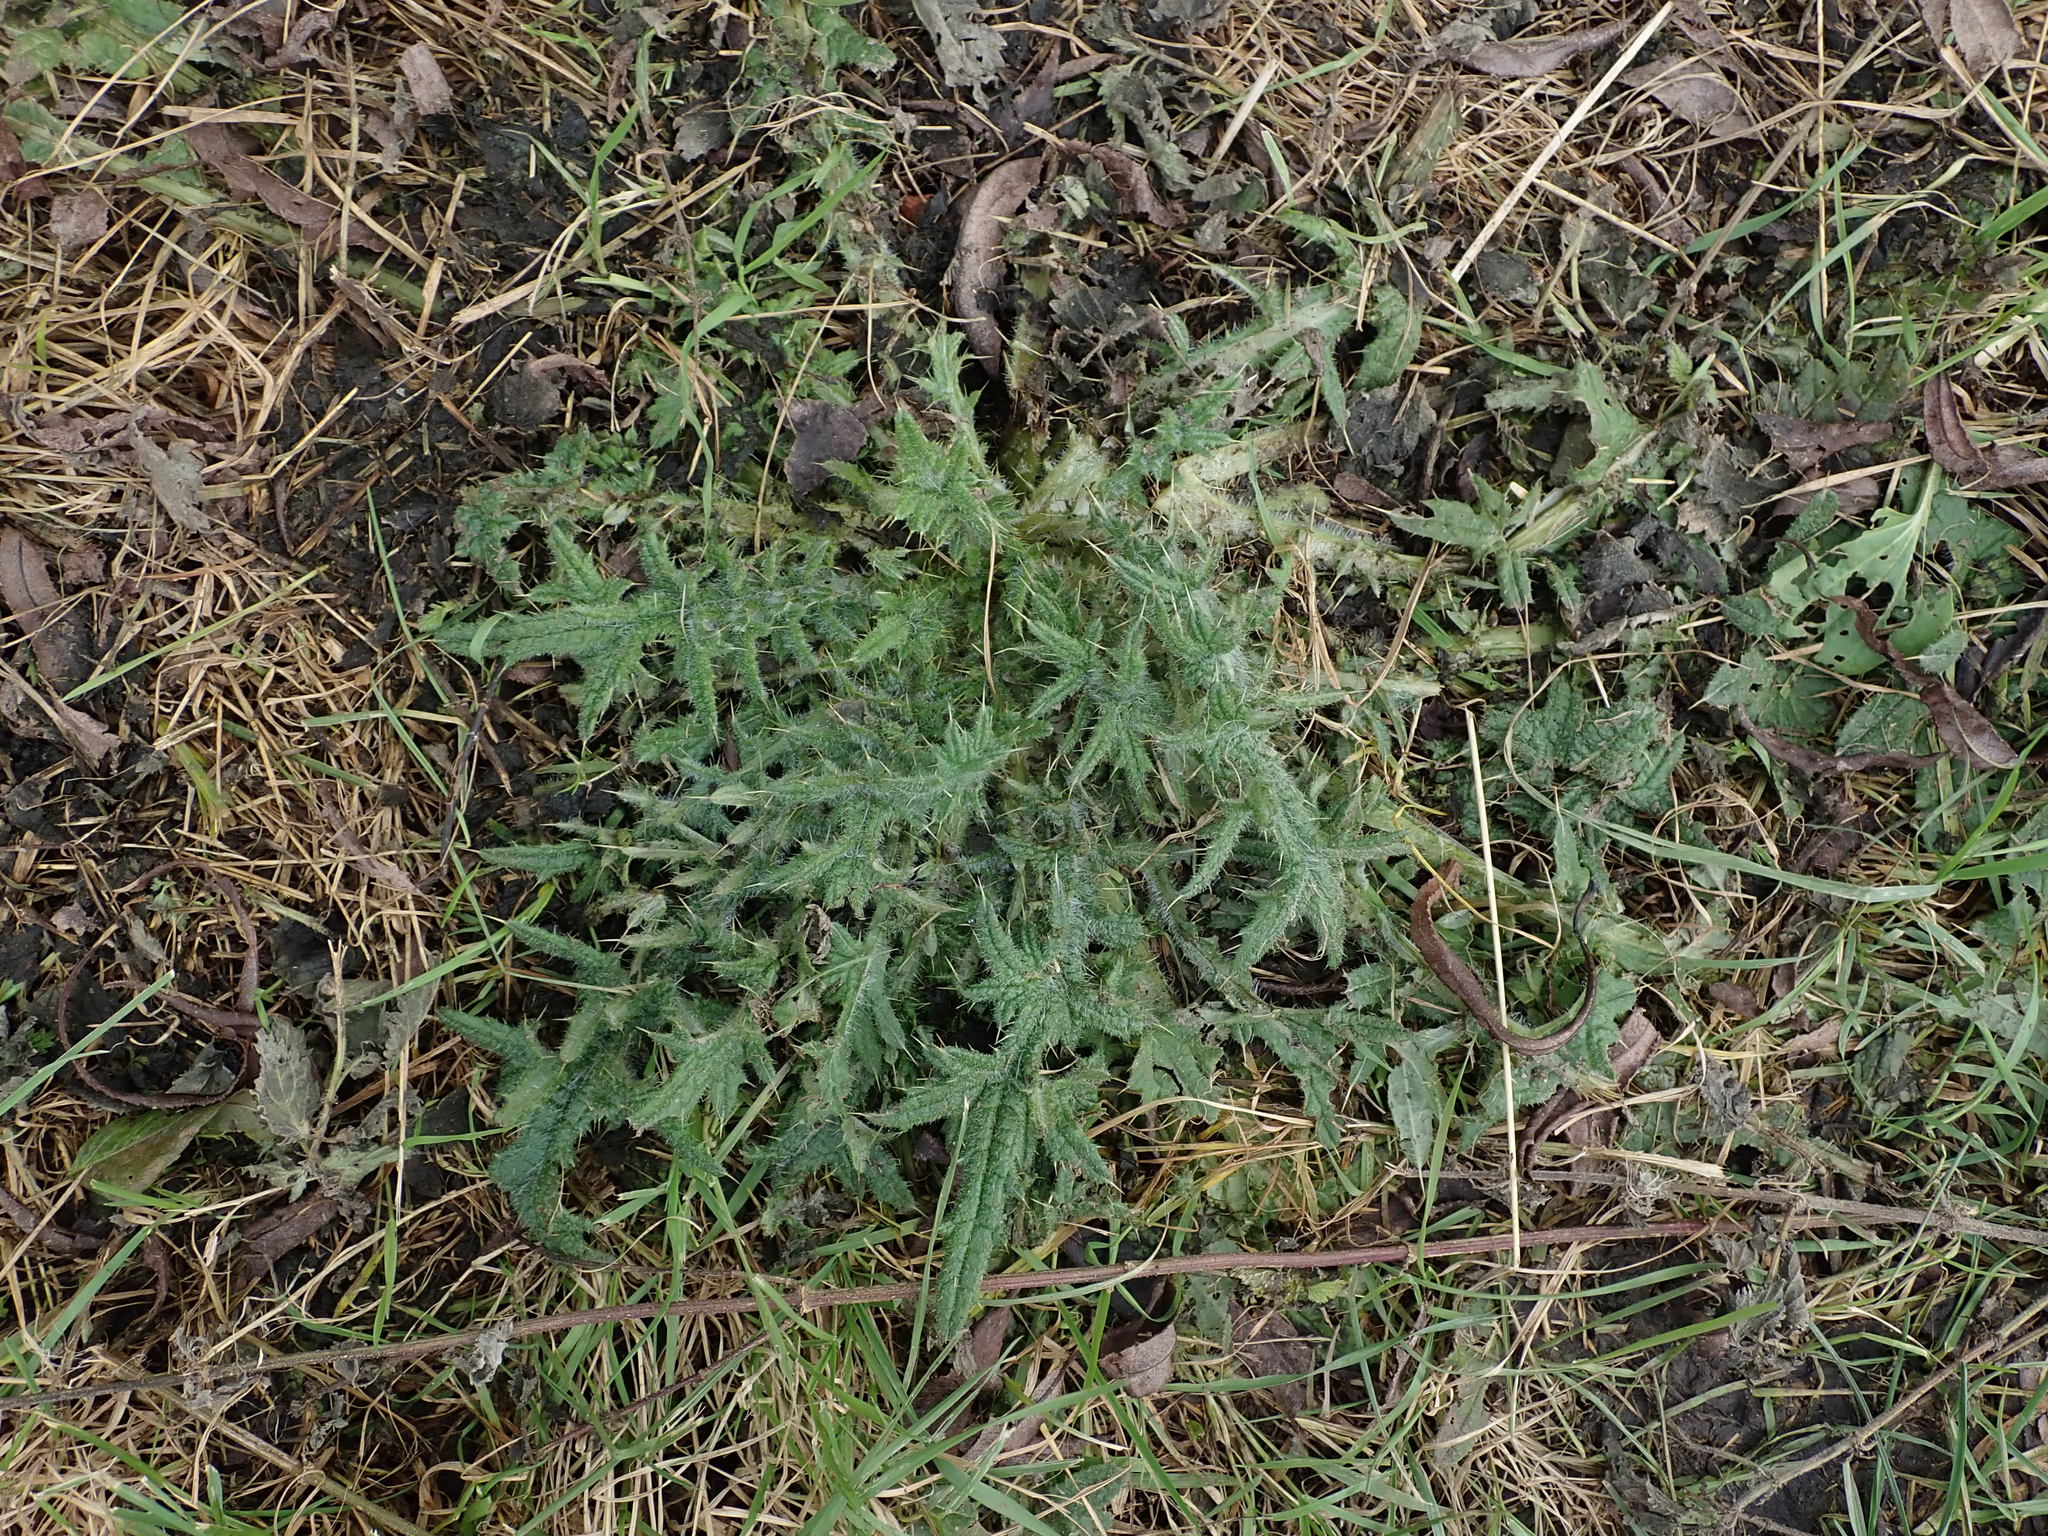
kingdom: Plantae
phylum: Tracheophyta
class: Magnoliopsida
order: Asterales
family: Asteraceae
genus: Cirsium
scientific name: Cirsium vulgare
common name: Bull thistle
